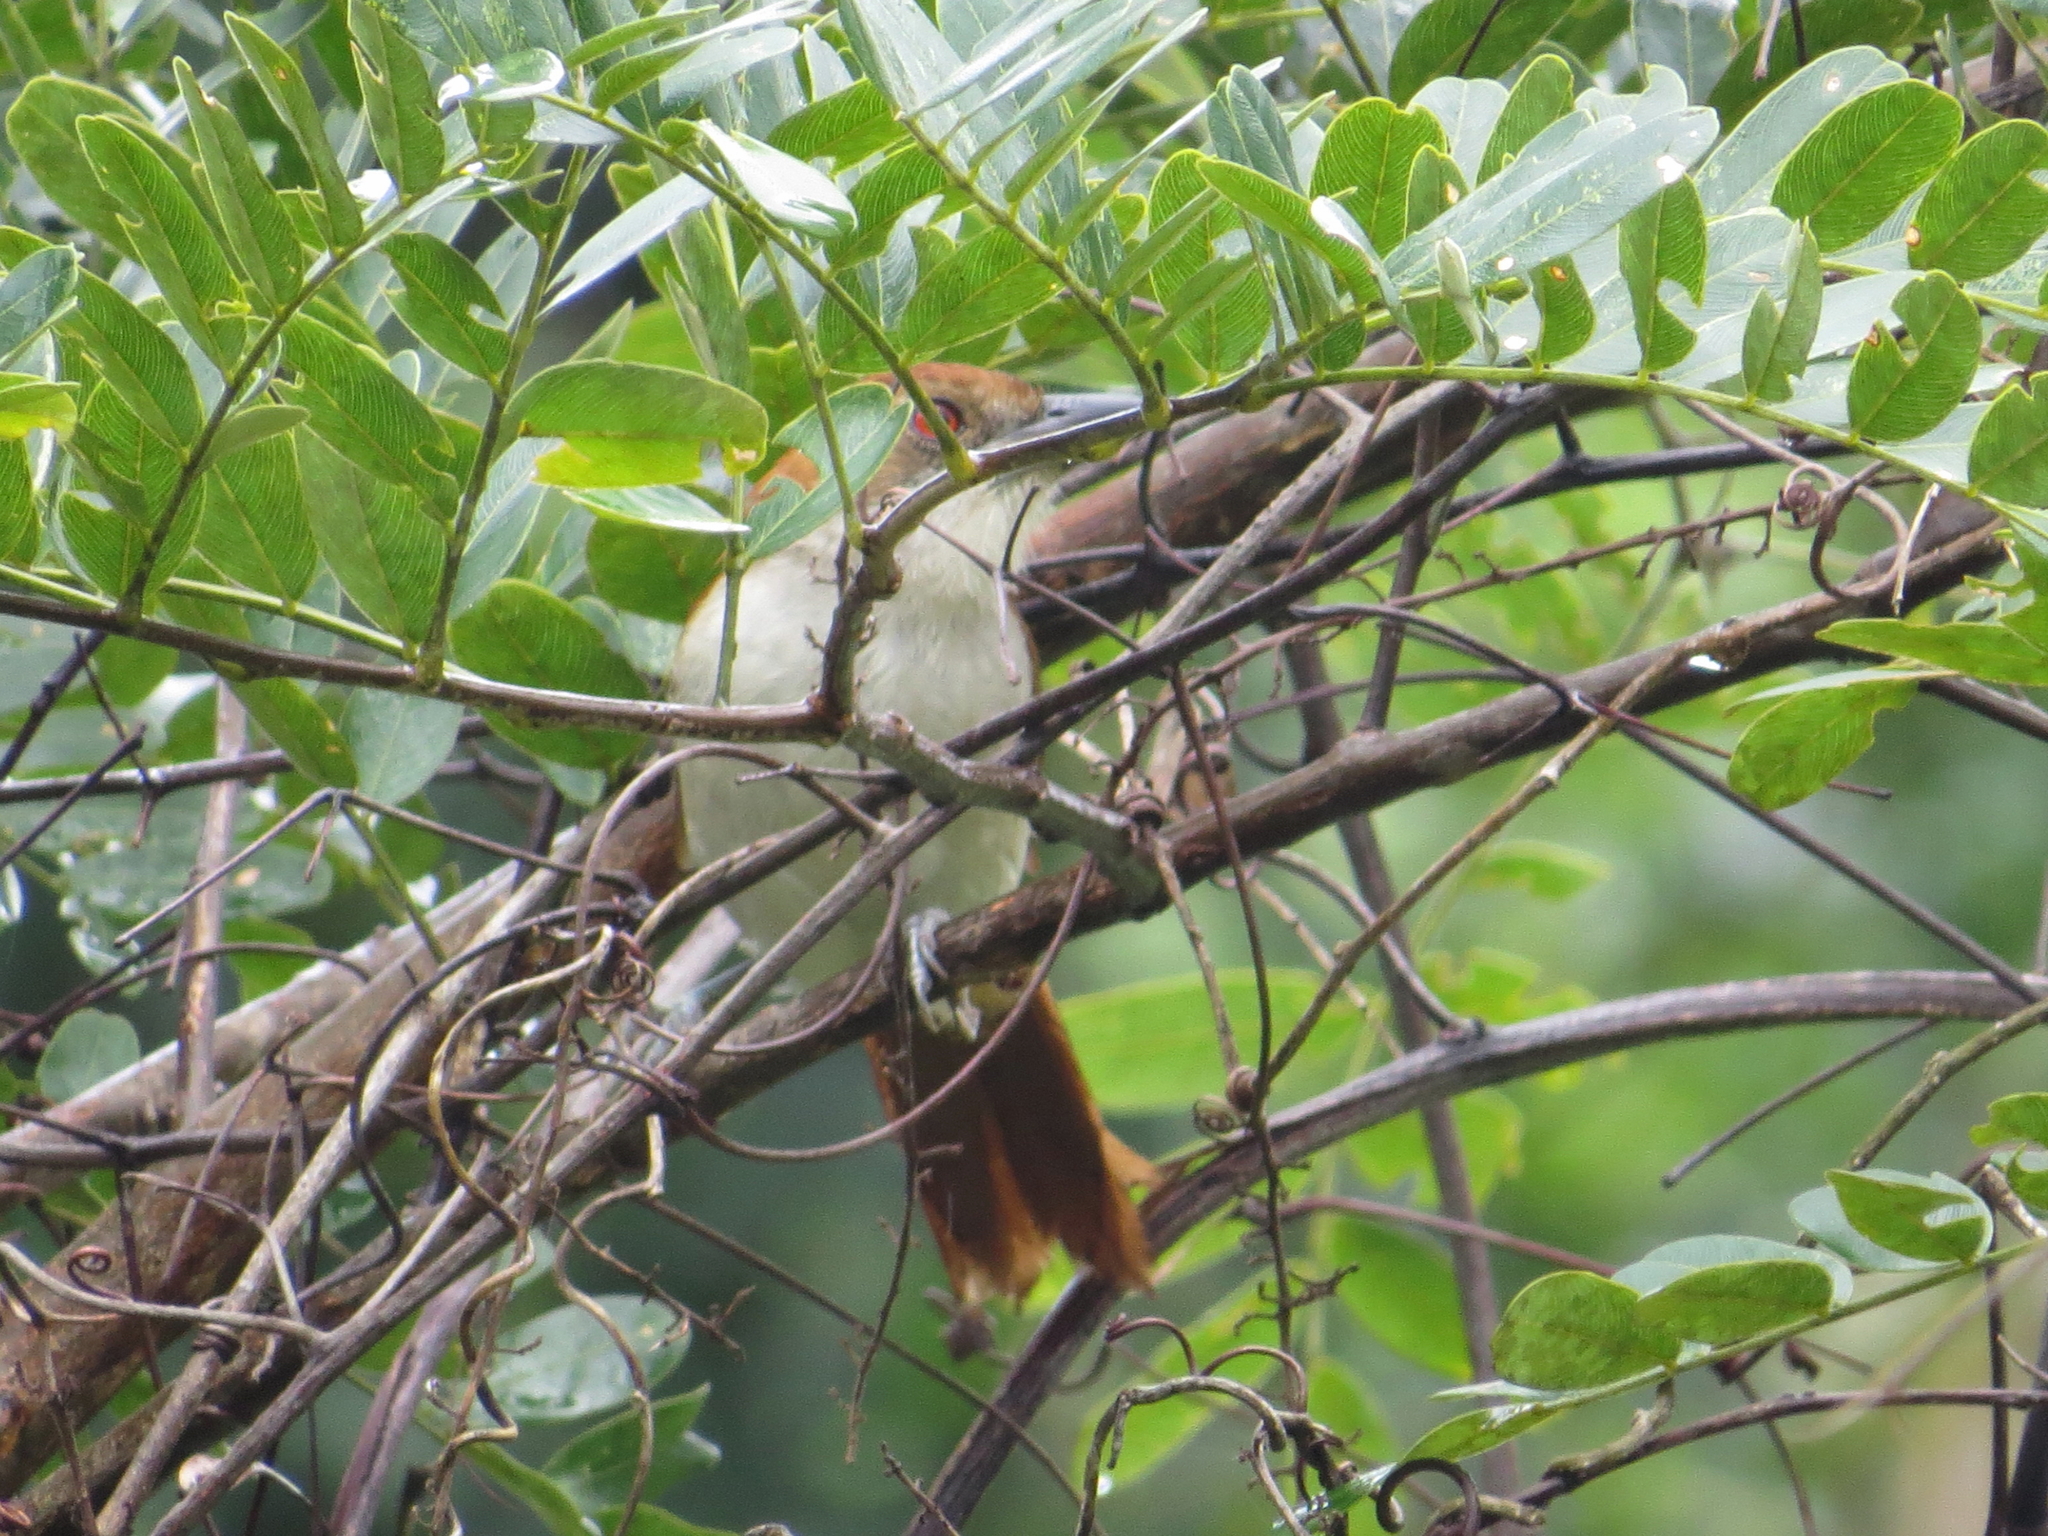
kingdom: Animalia
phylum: Chordata
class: Aves
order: Passeriformes
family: Thamnophilidae
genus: Taraba
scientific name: Taraba major
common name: Great antshrike
